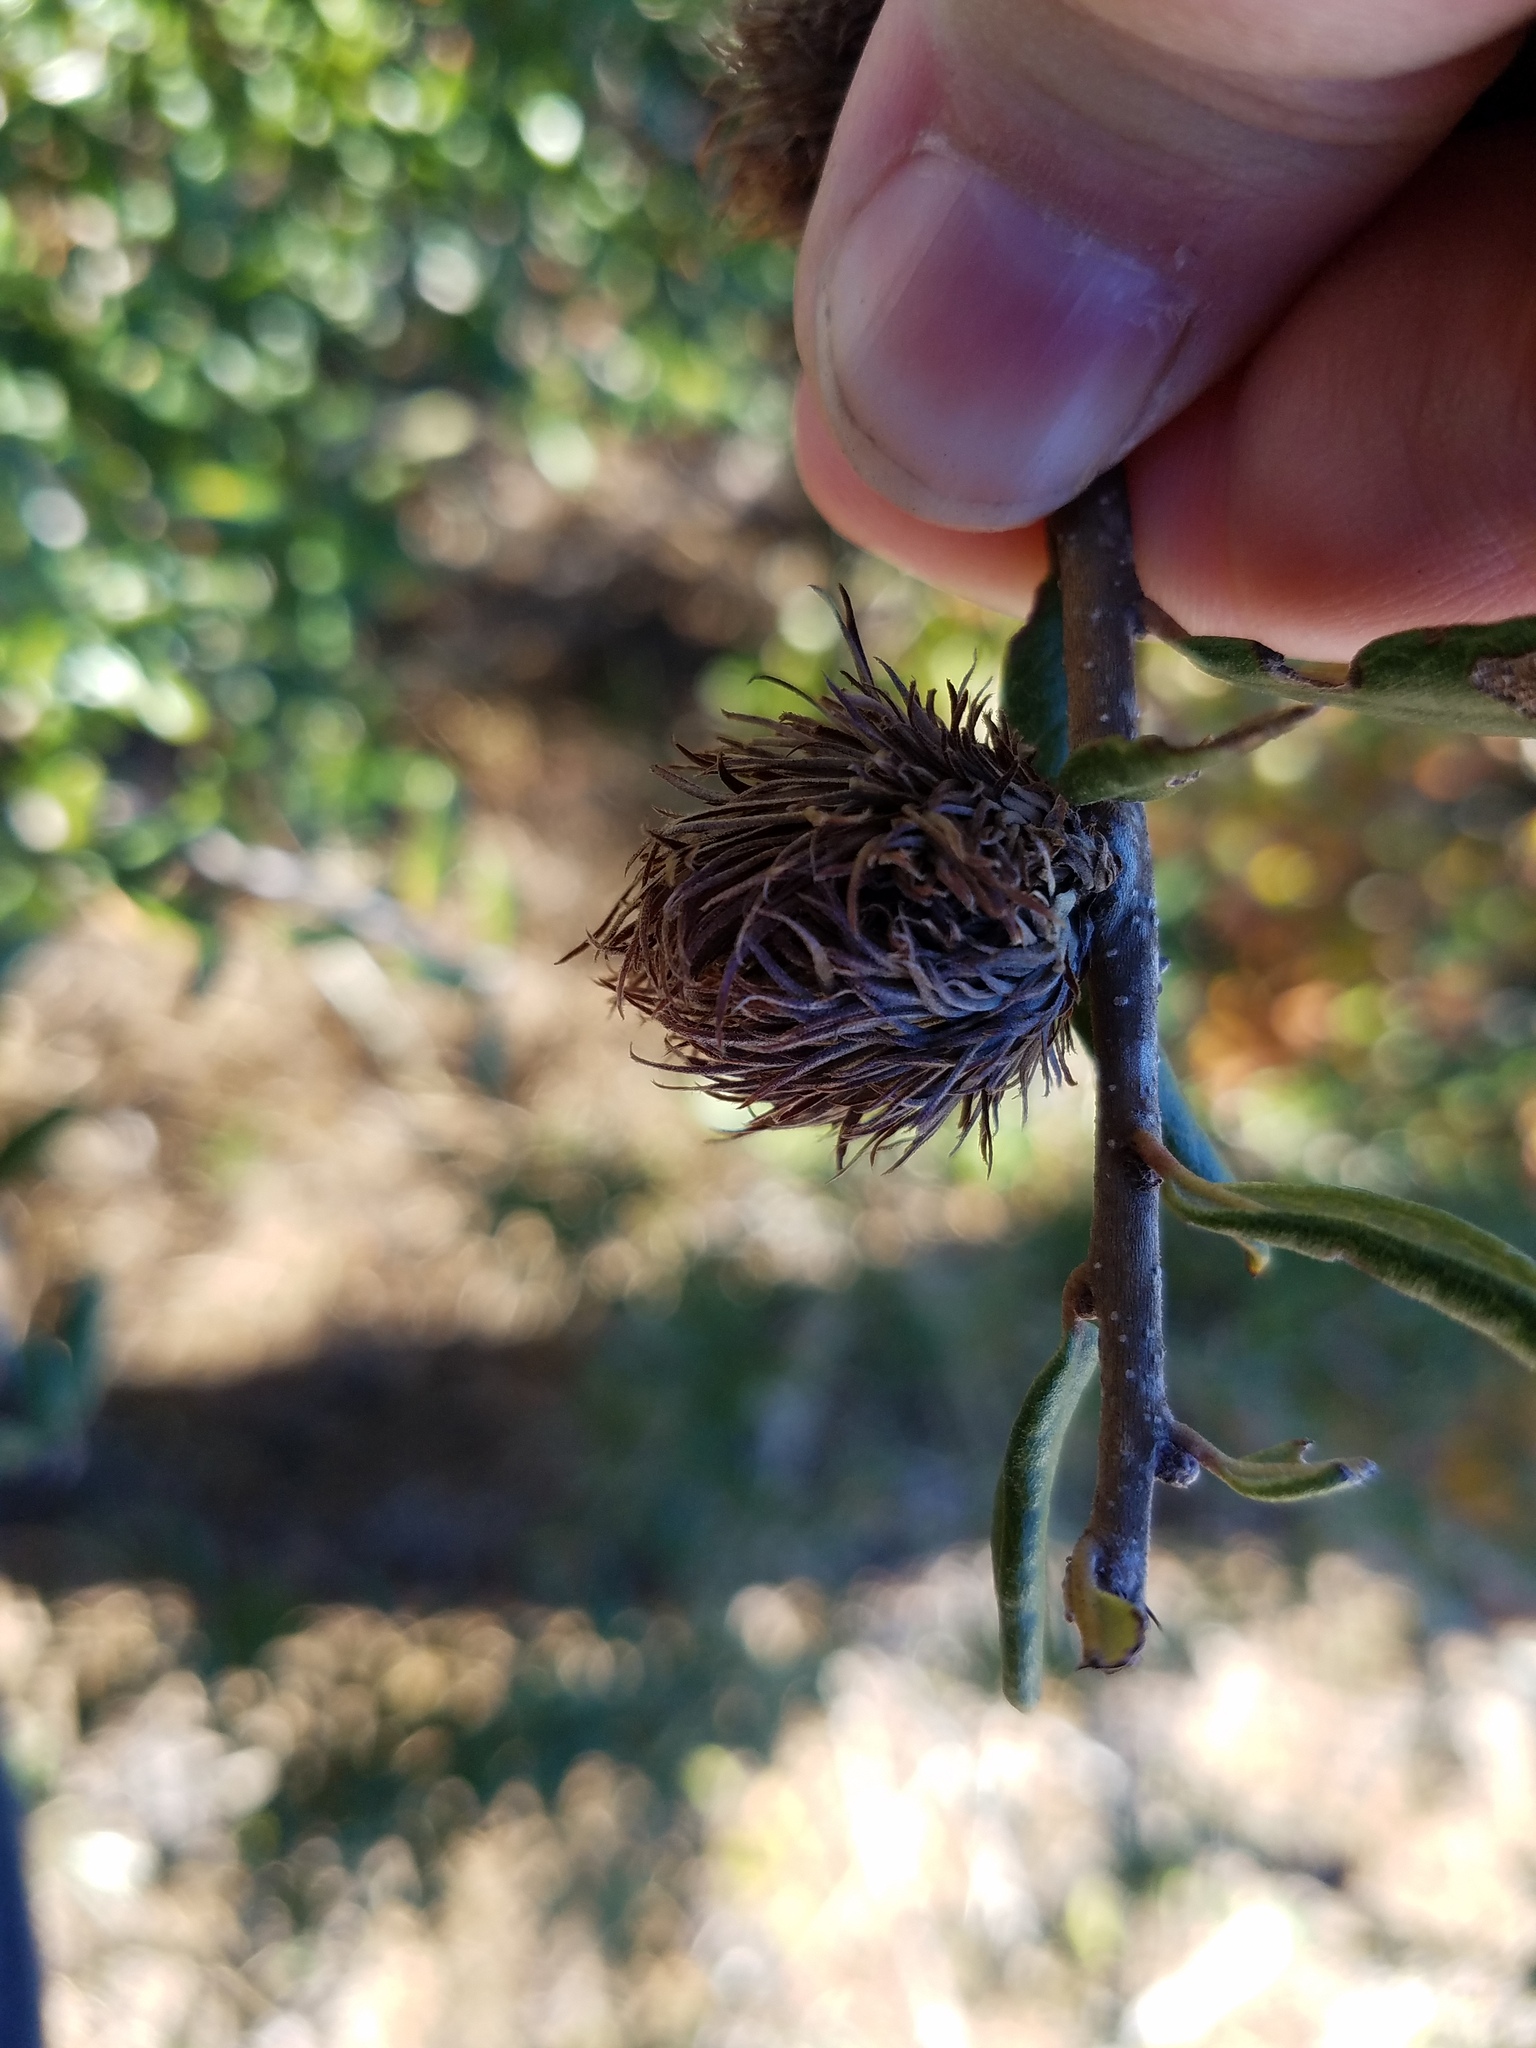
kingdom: Animalia
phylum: Arthropoda
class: Insecta
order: Hymenoptera
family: Cynipidae
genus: Andricus
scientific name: Andricus quercusfoliatus
